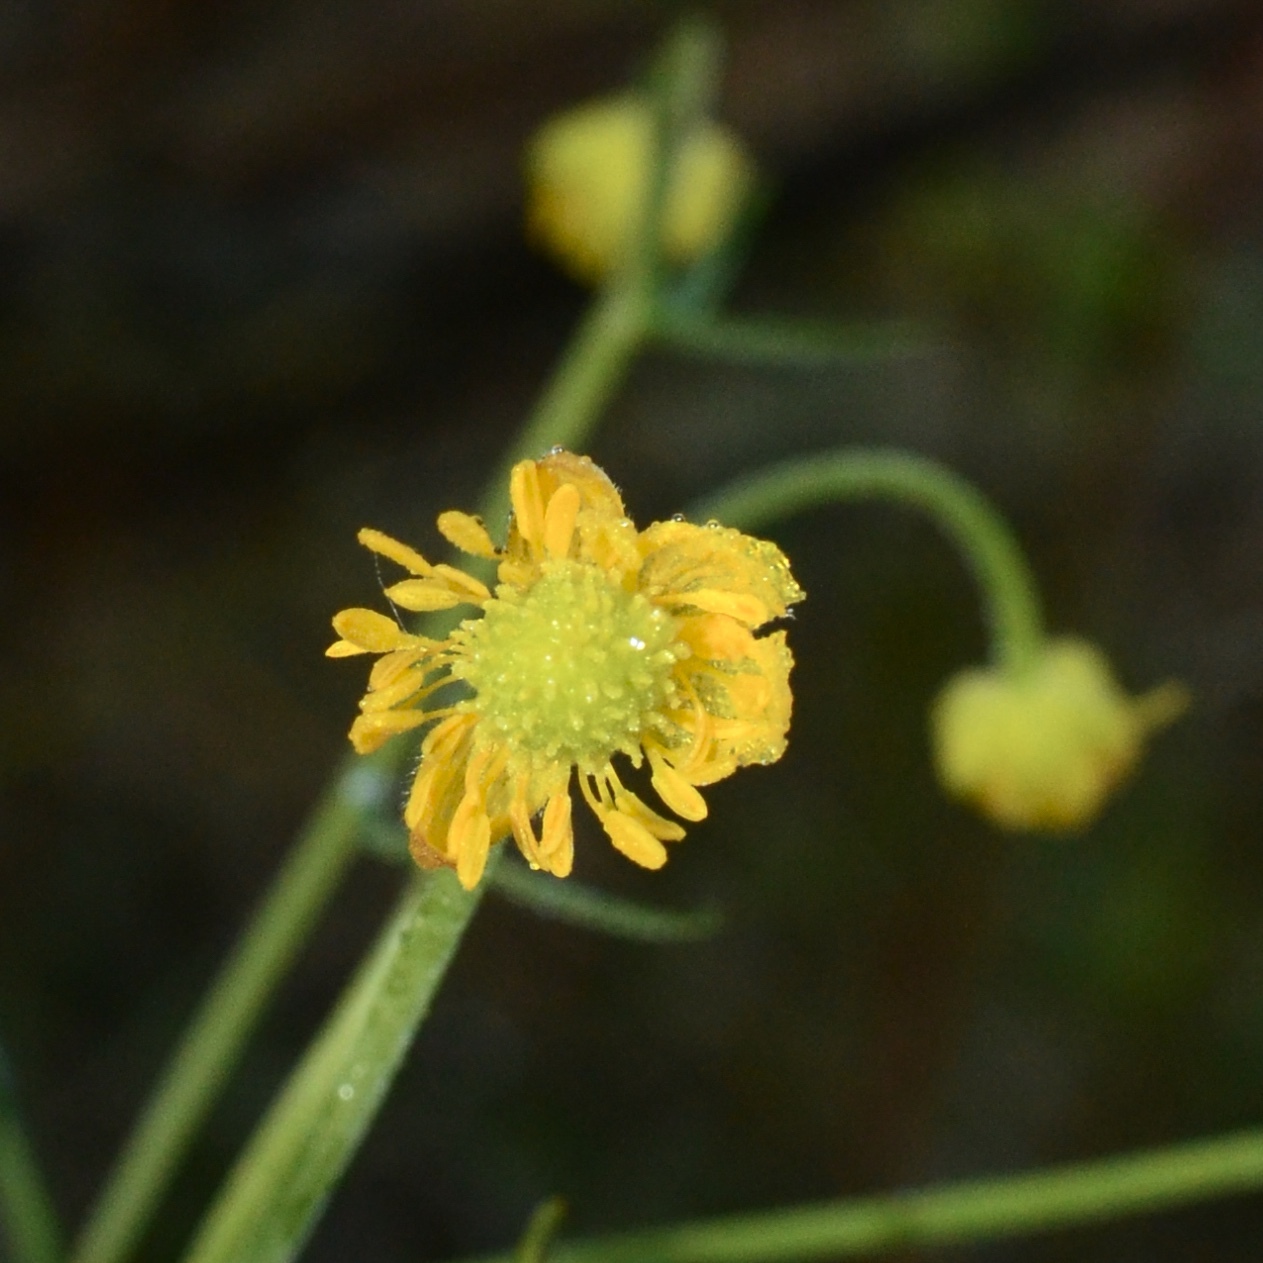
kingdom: Plantae
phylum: Tracheophyta
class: Magnoliopsida
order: Ranunculales
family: Ranunculaceae
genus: Ranunculus
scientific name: Ranunculus acris
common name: Meadow buttercup
